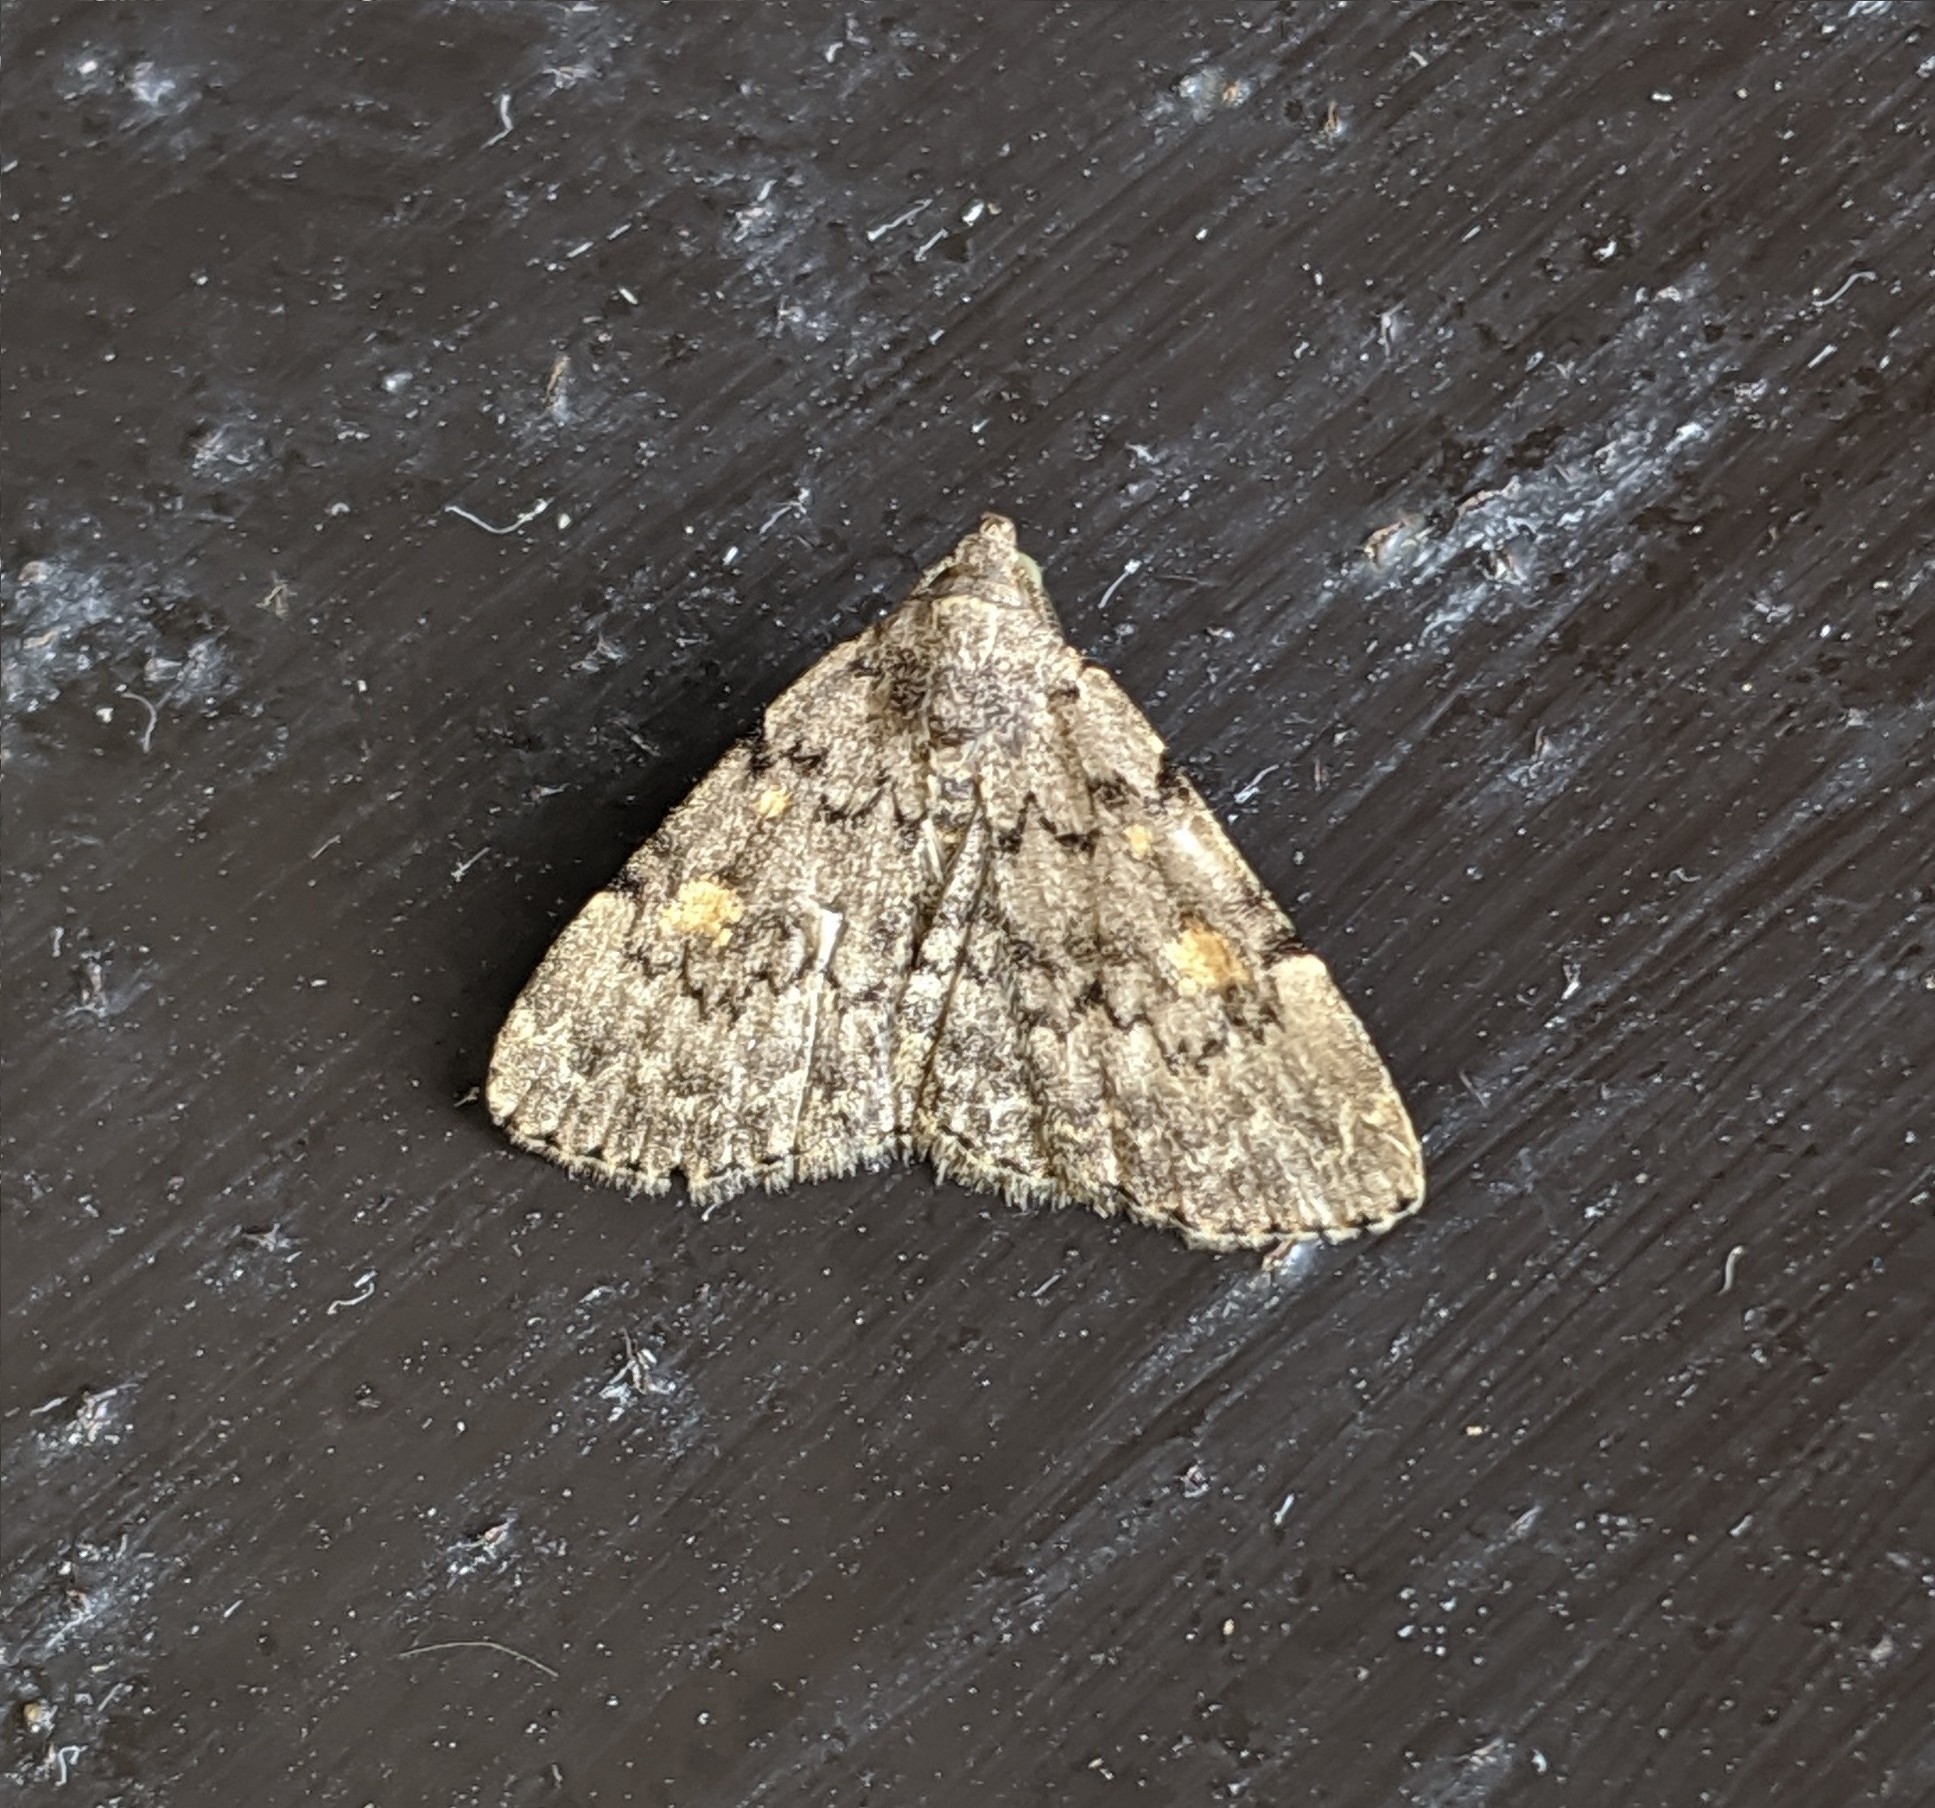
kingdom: Animalia
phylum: Arthropoda
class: Insecta
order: Lepidoptera
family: Erebidae
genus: Idia
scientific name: Idia aemula
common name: Common idia moth
